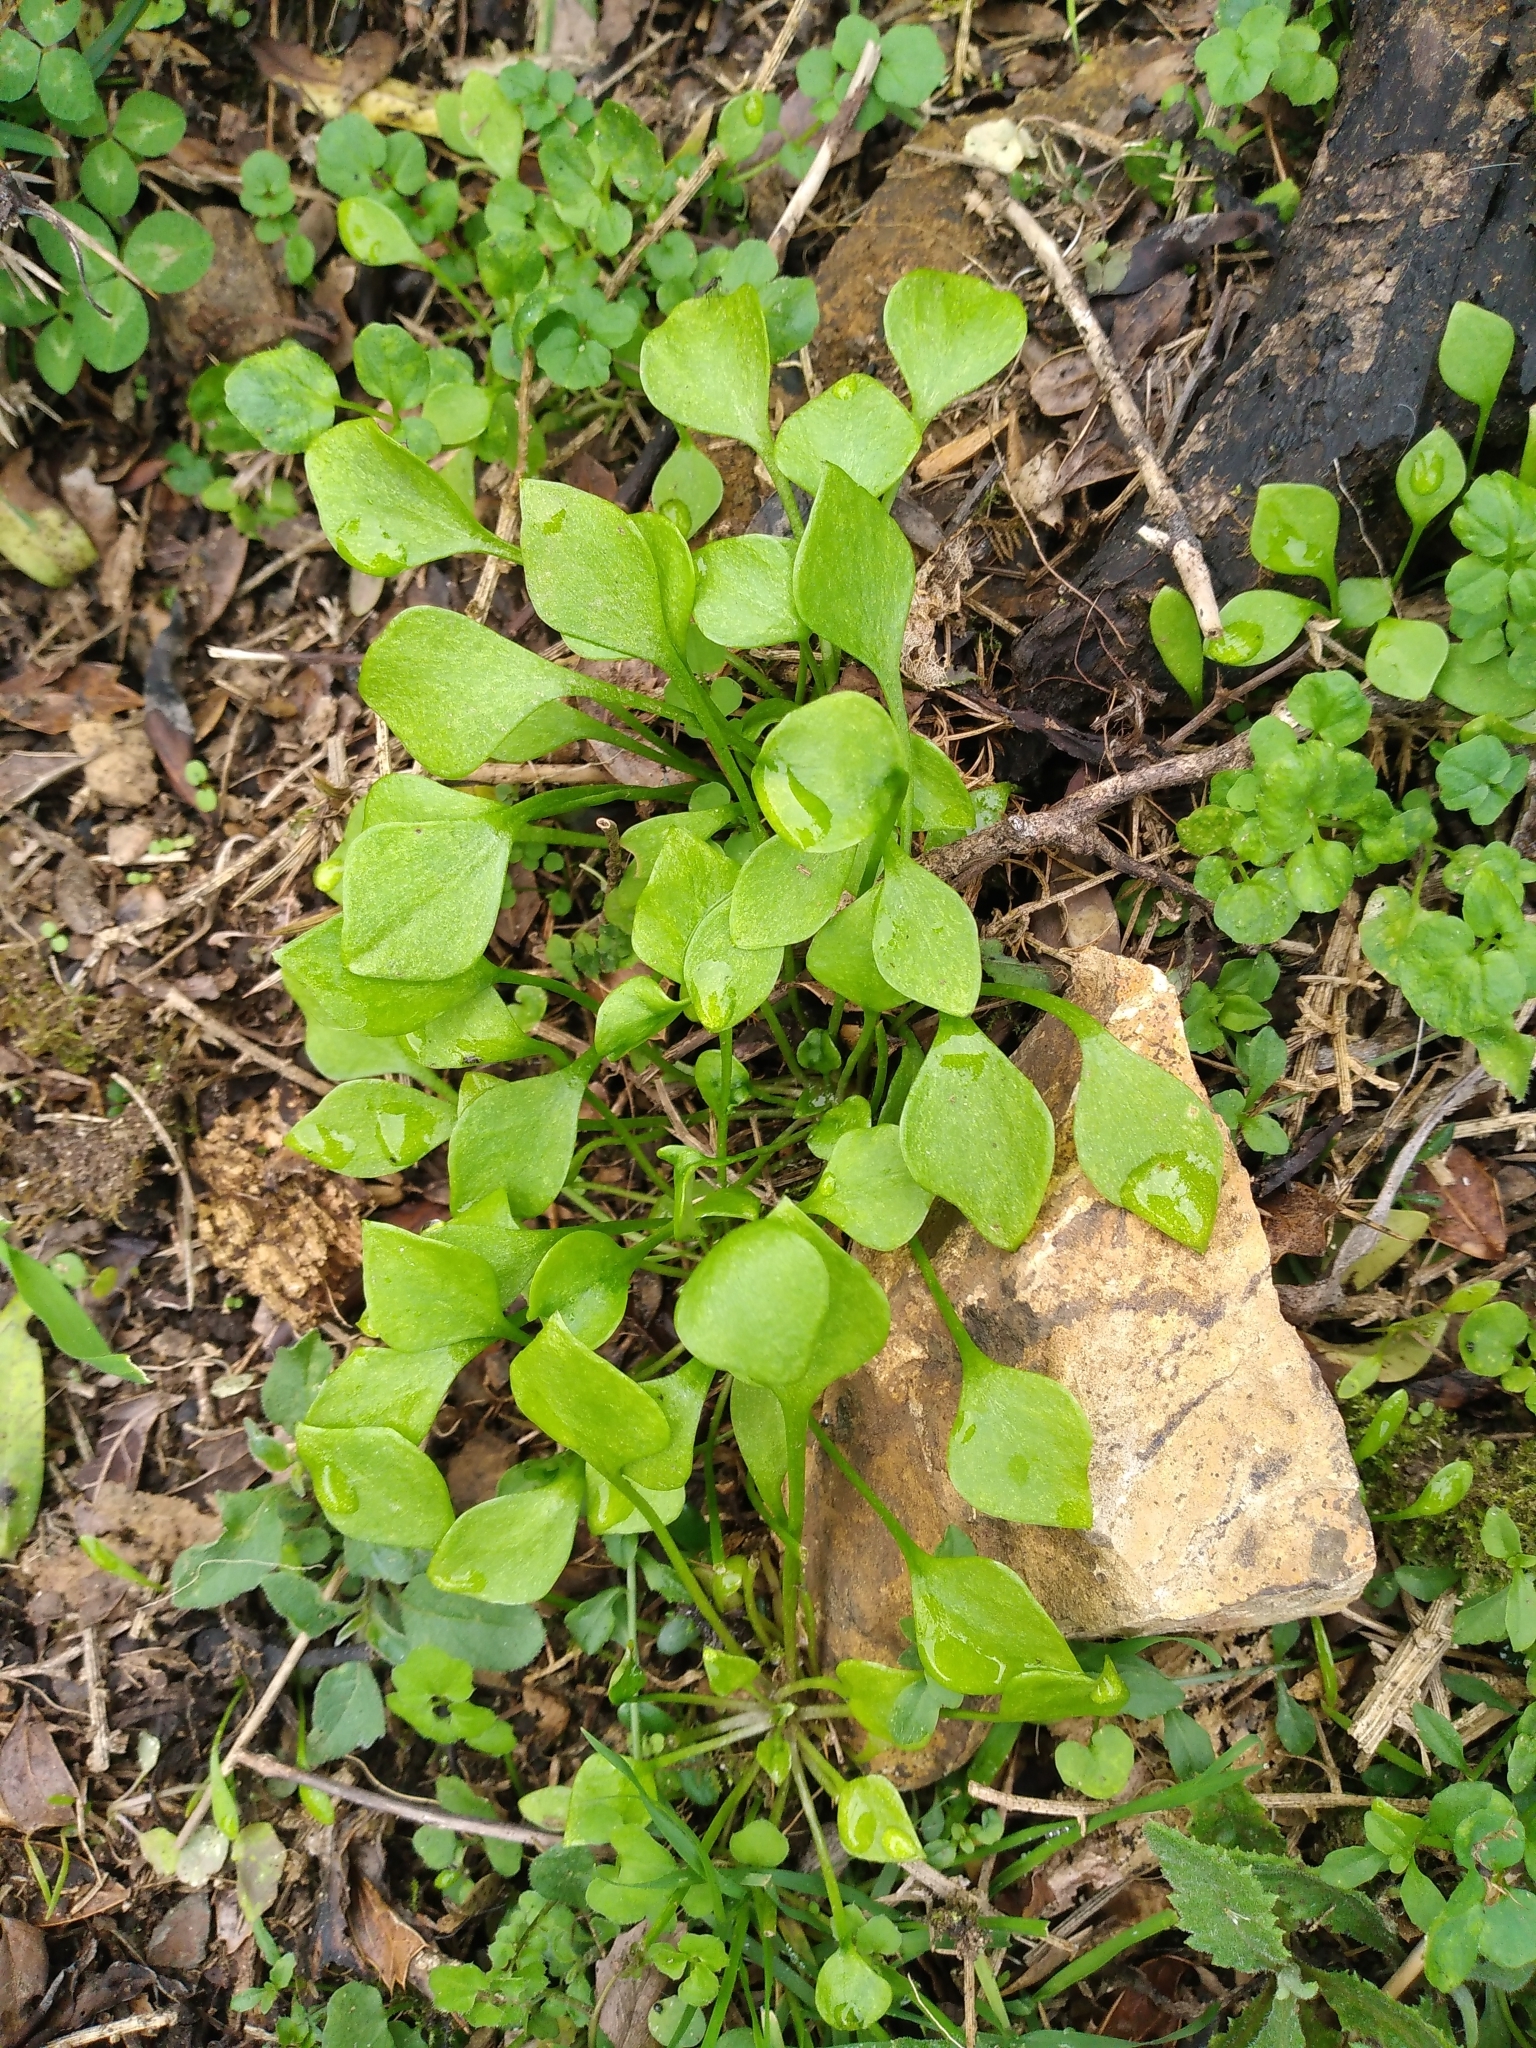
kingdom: Plantae
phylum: Tracheophyta
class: Magnoliopsida
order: Caryophyllales
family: Montiaceae
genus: Claytonia
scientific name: Claytonia perfoliata
